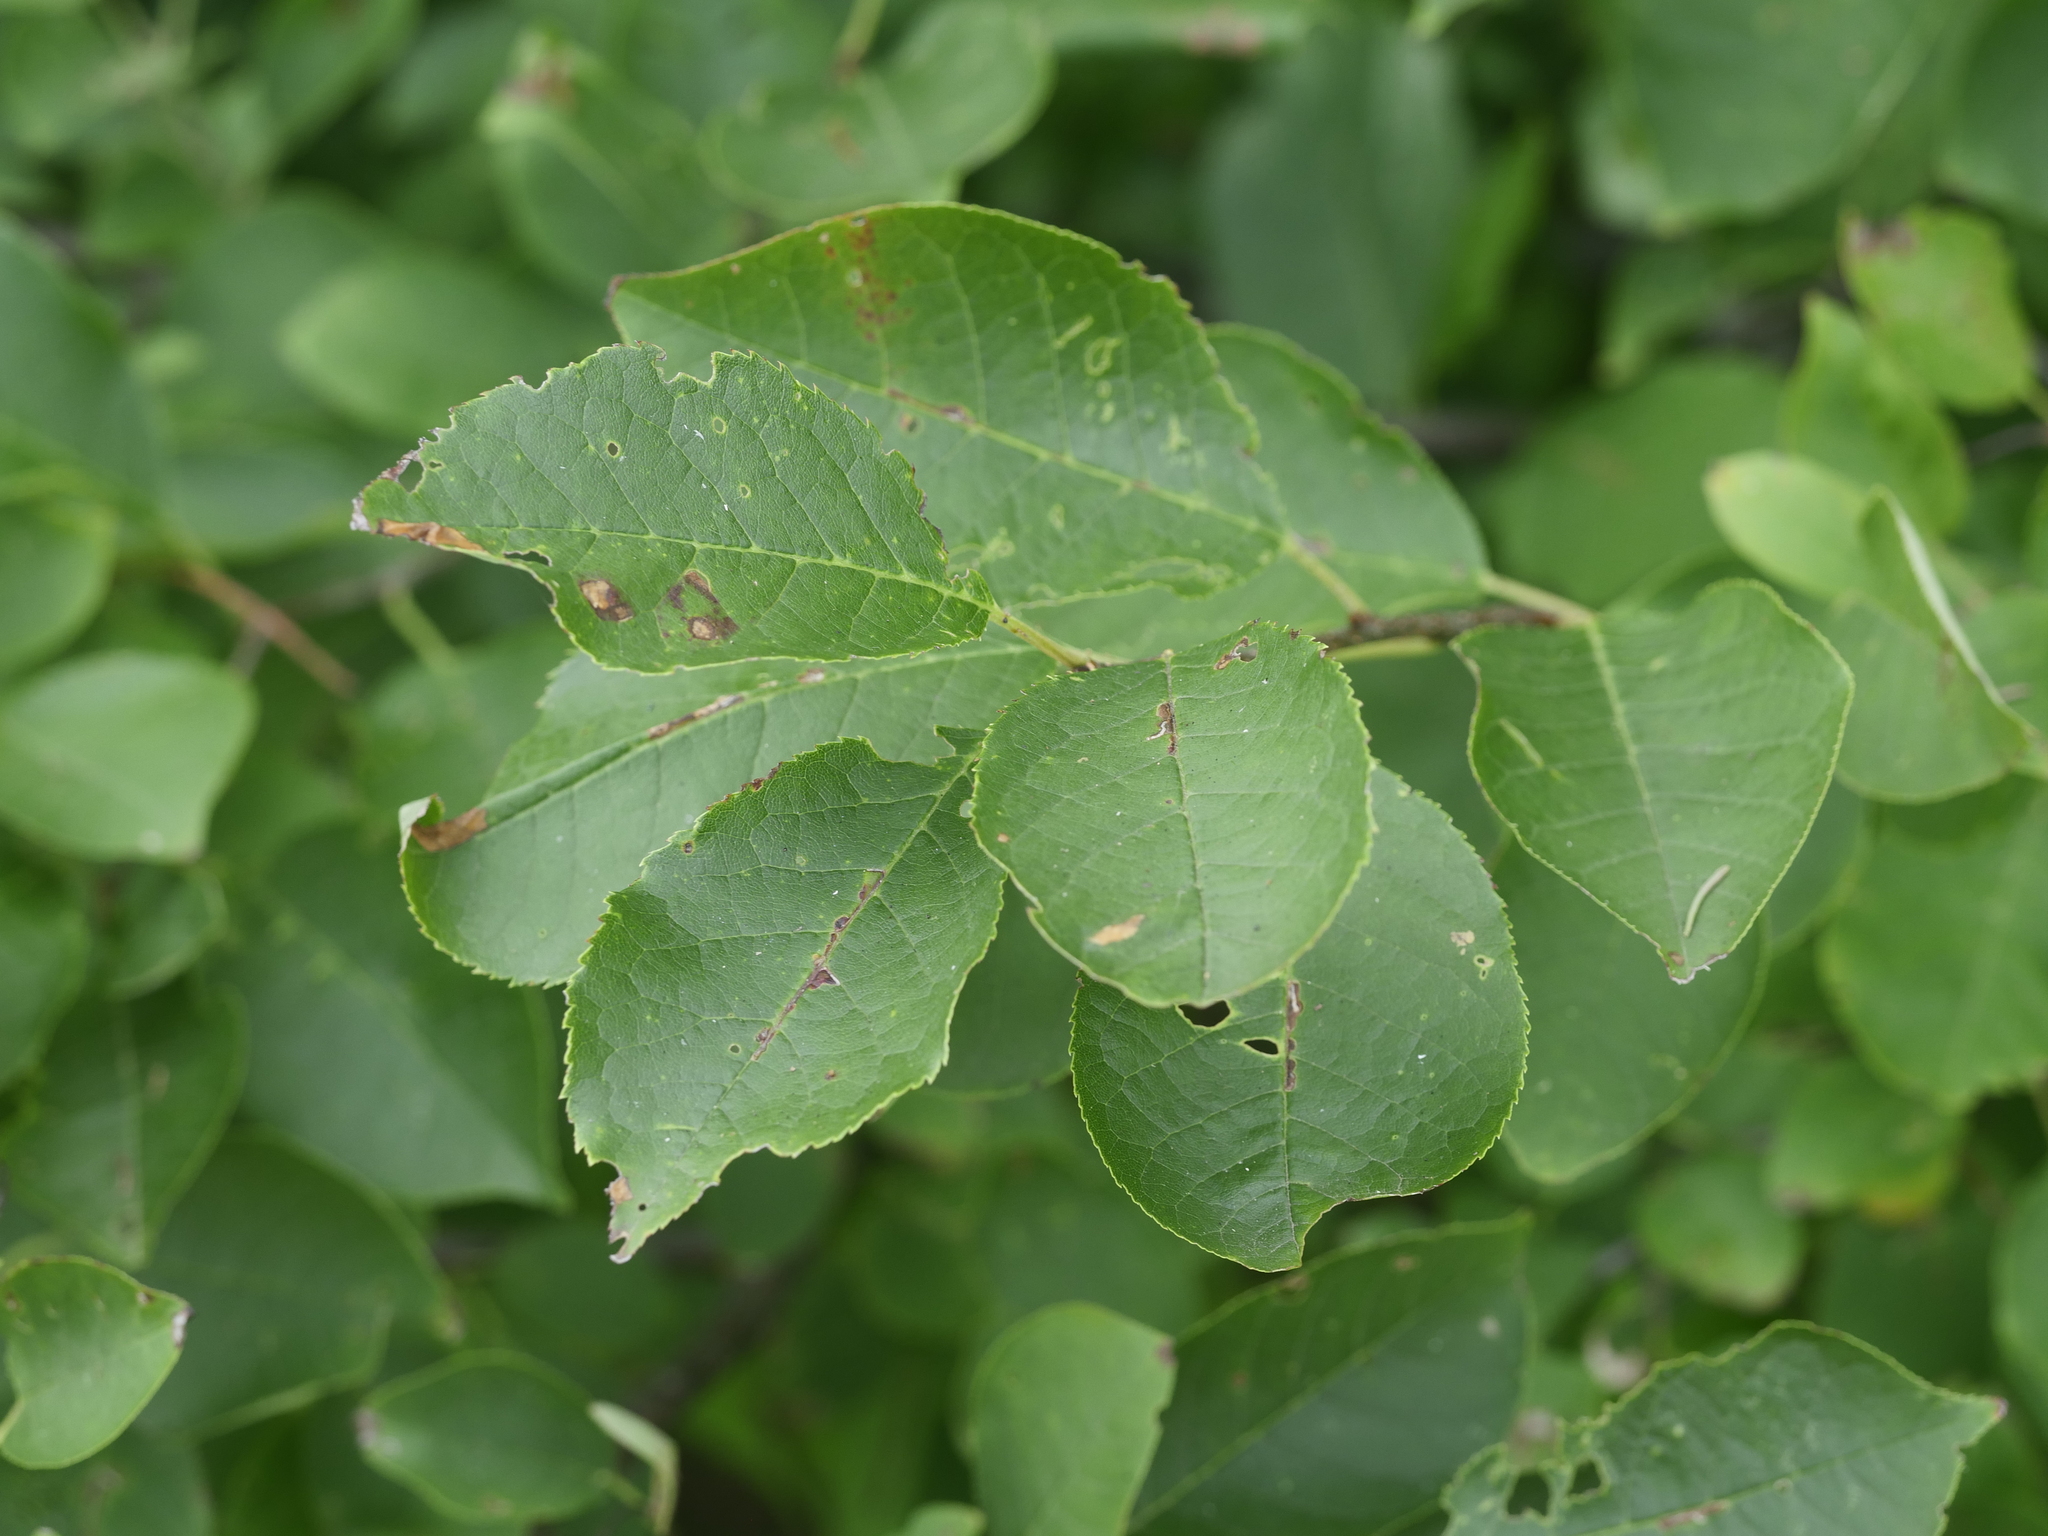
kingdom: Plantae
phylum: Tracheophyta
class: Magnoliopsida
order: Rosales
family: Rosaceae
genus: Prunus
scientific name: Prunus virginiana
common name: Chokecherry
